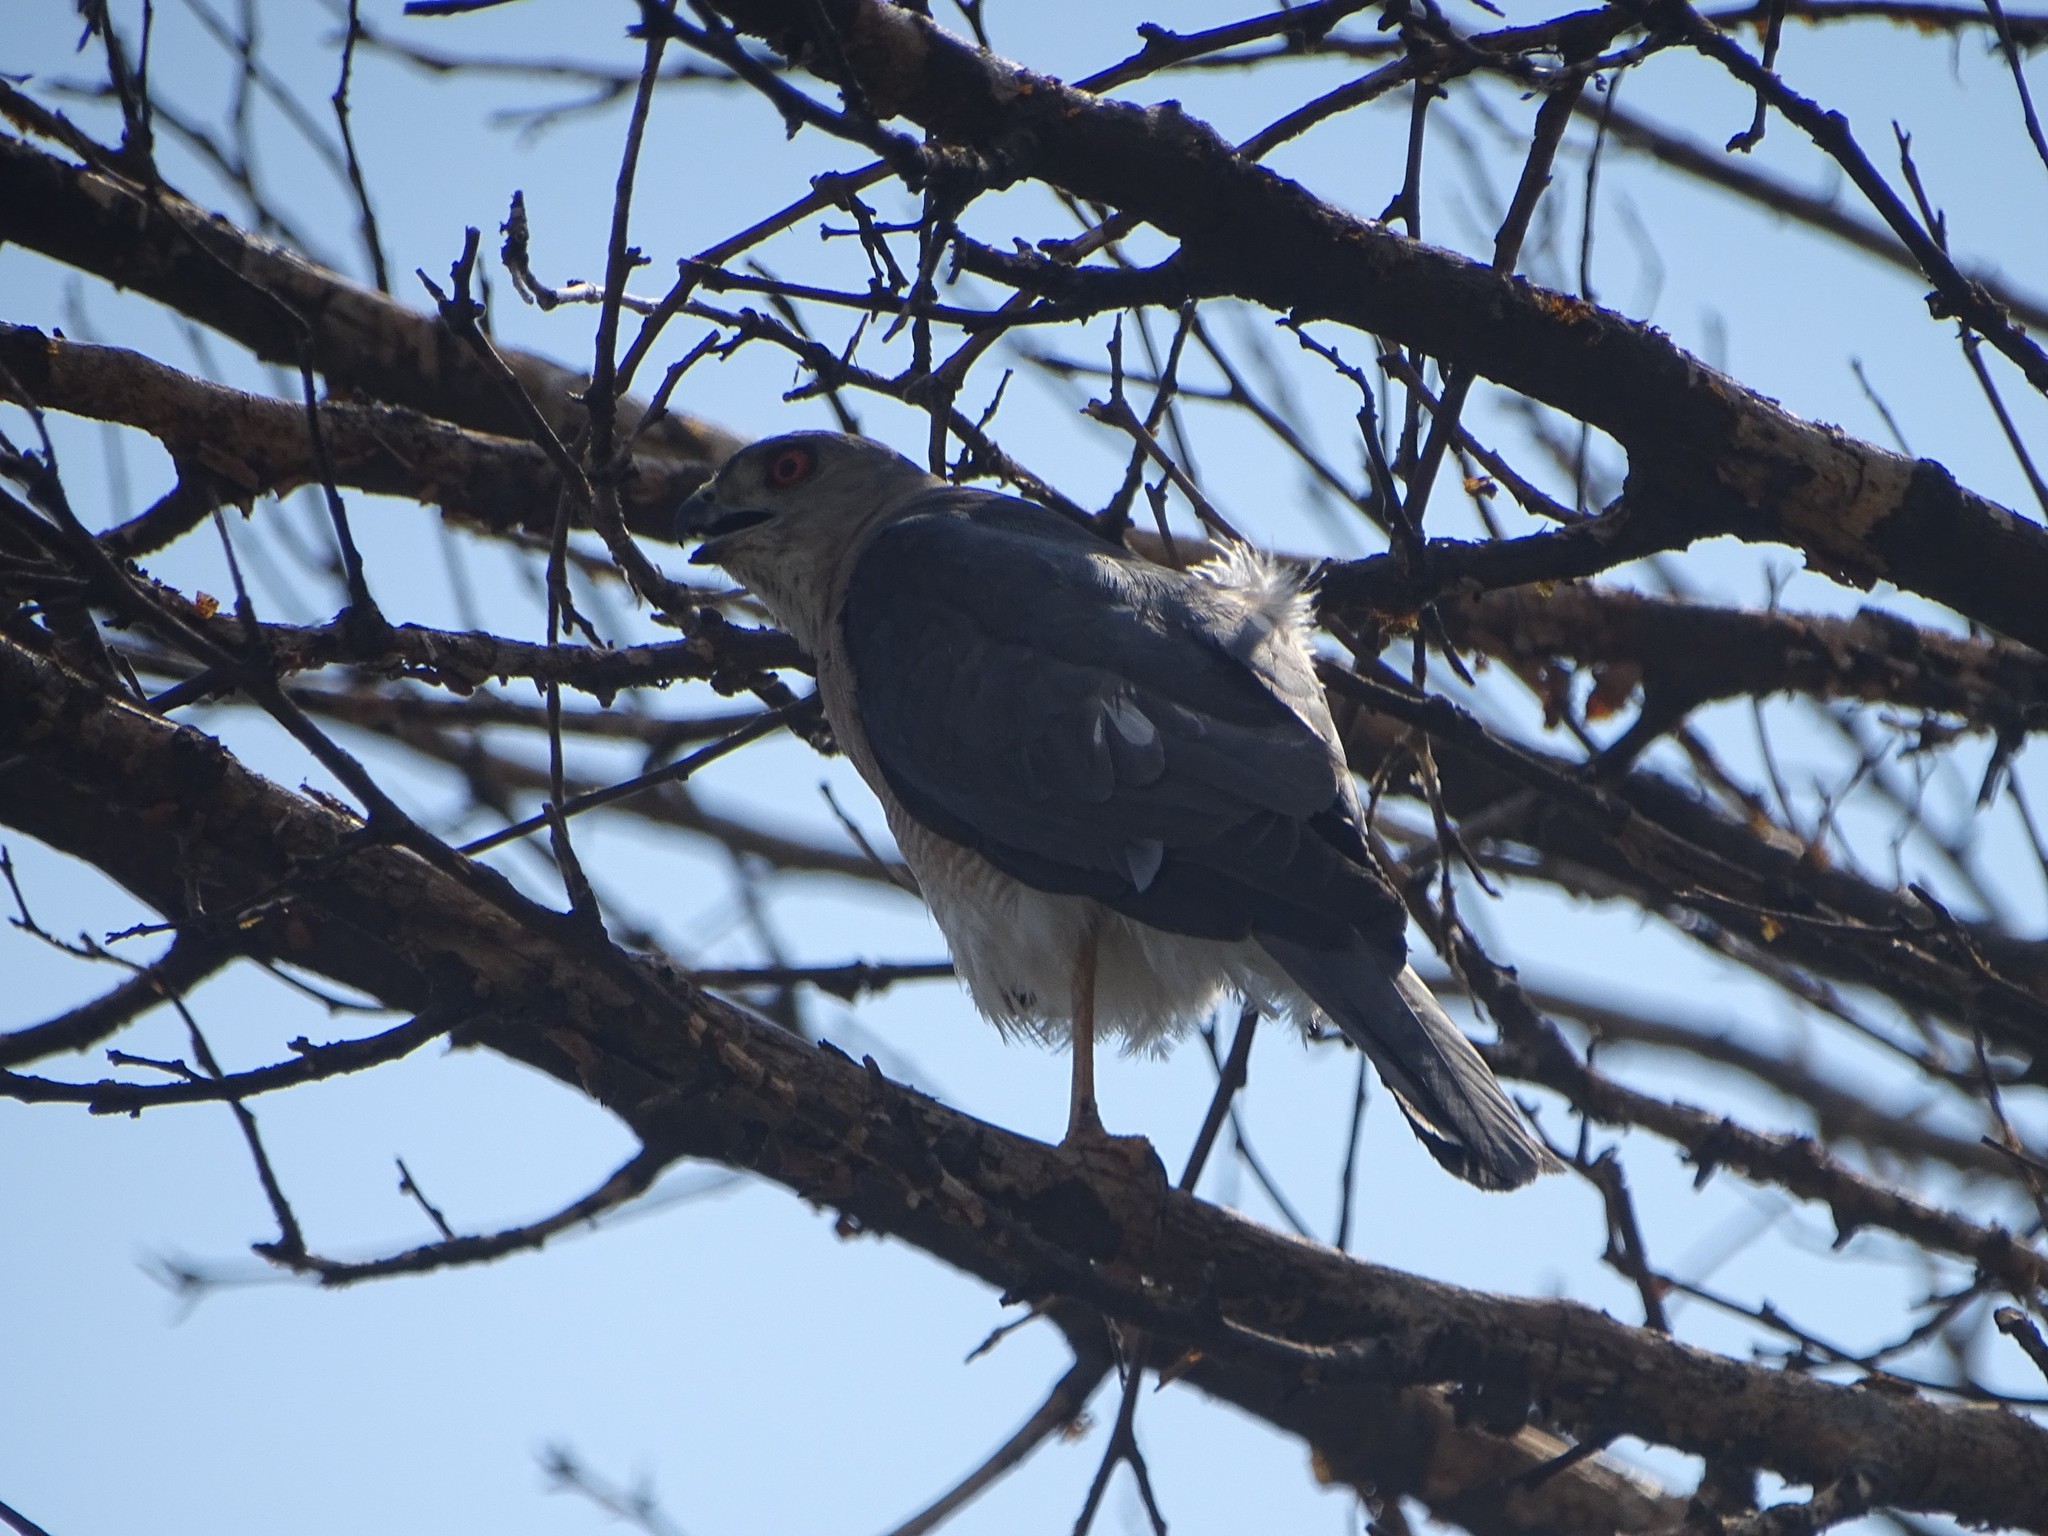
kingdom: Animalia
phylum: Chordata
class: Aves
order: Accipitriformes
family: Accipitridae
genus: Accipiter
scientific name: Accipiter badius
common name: Shikra
